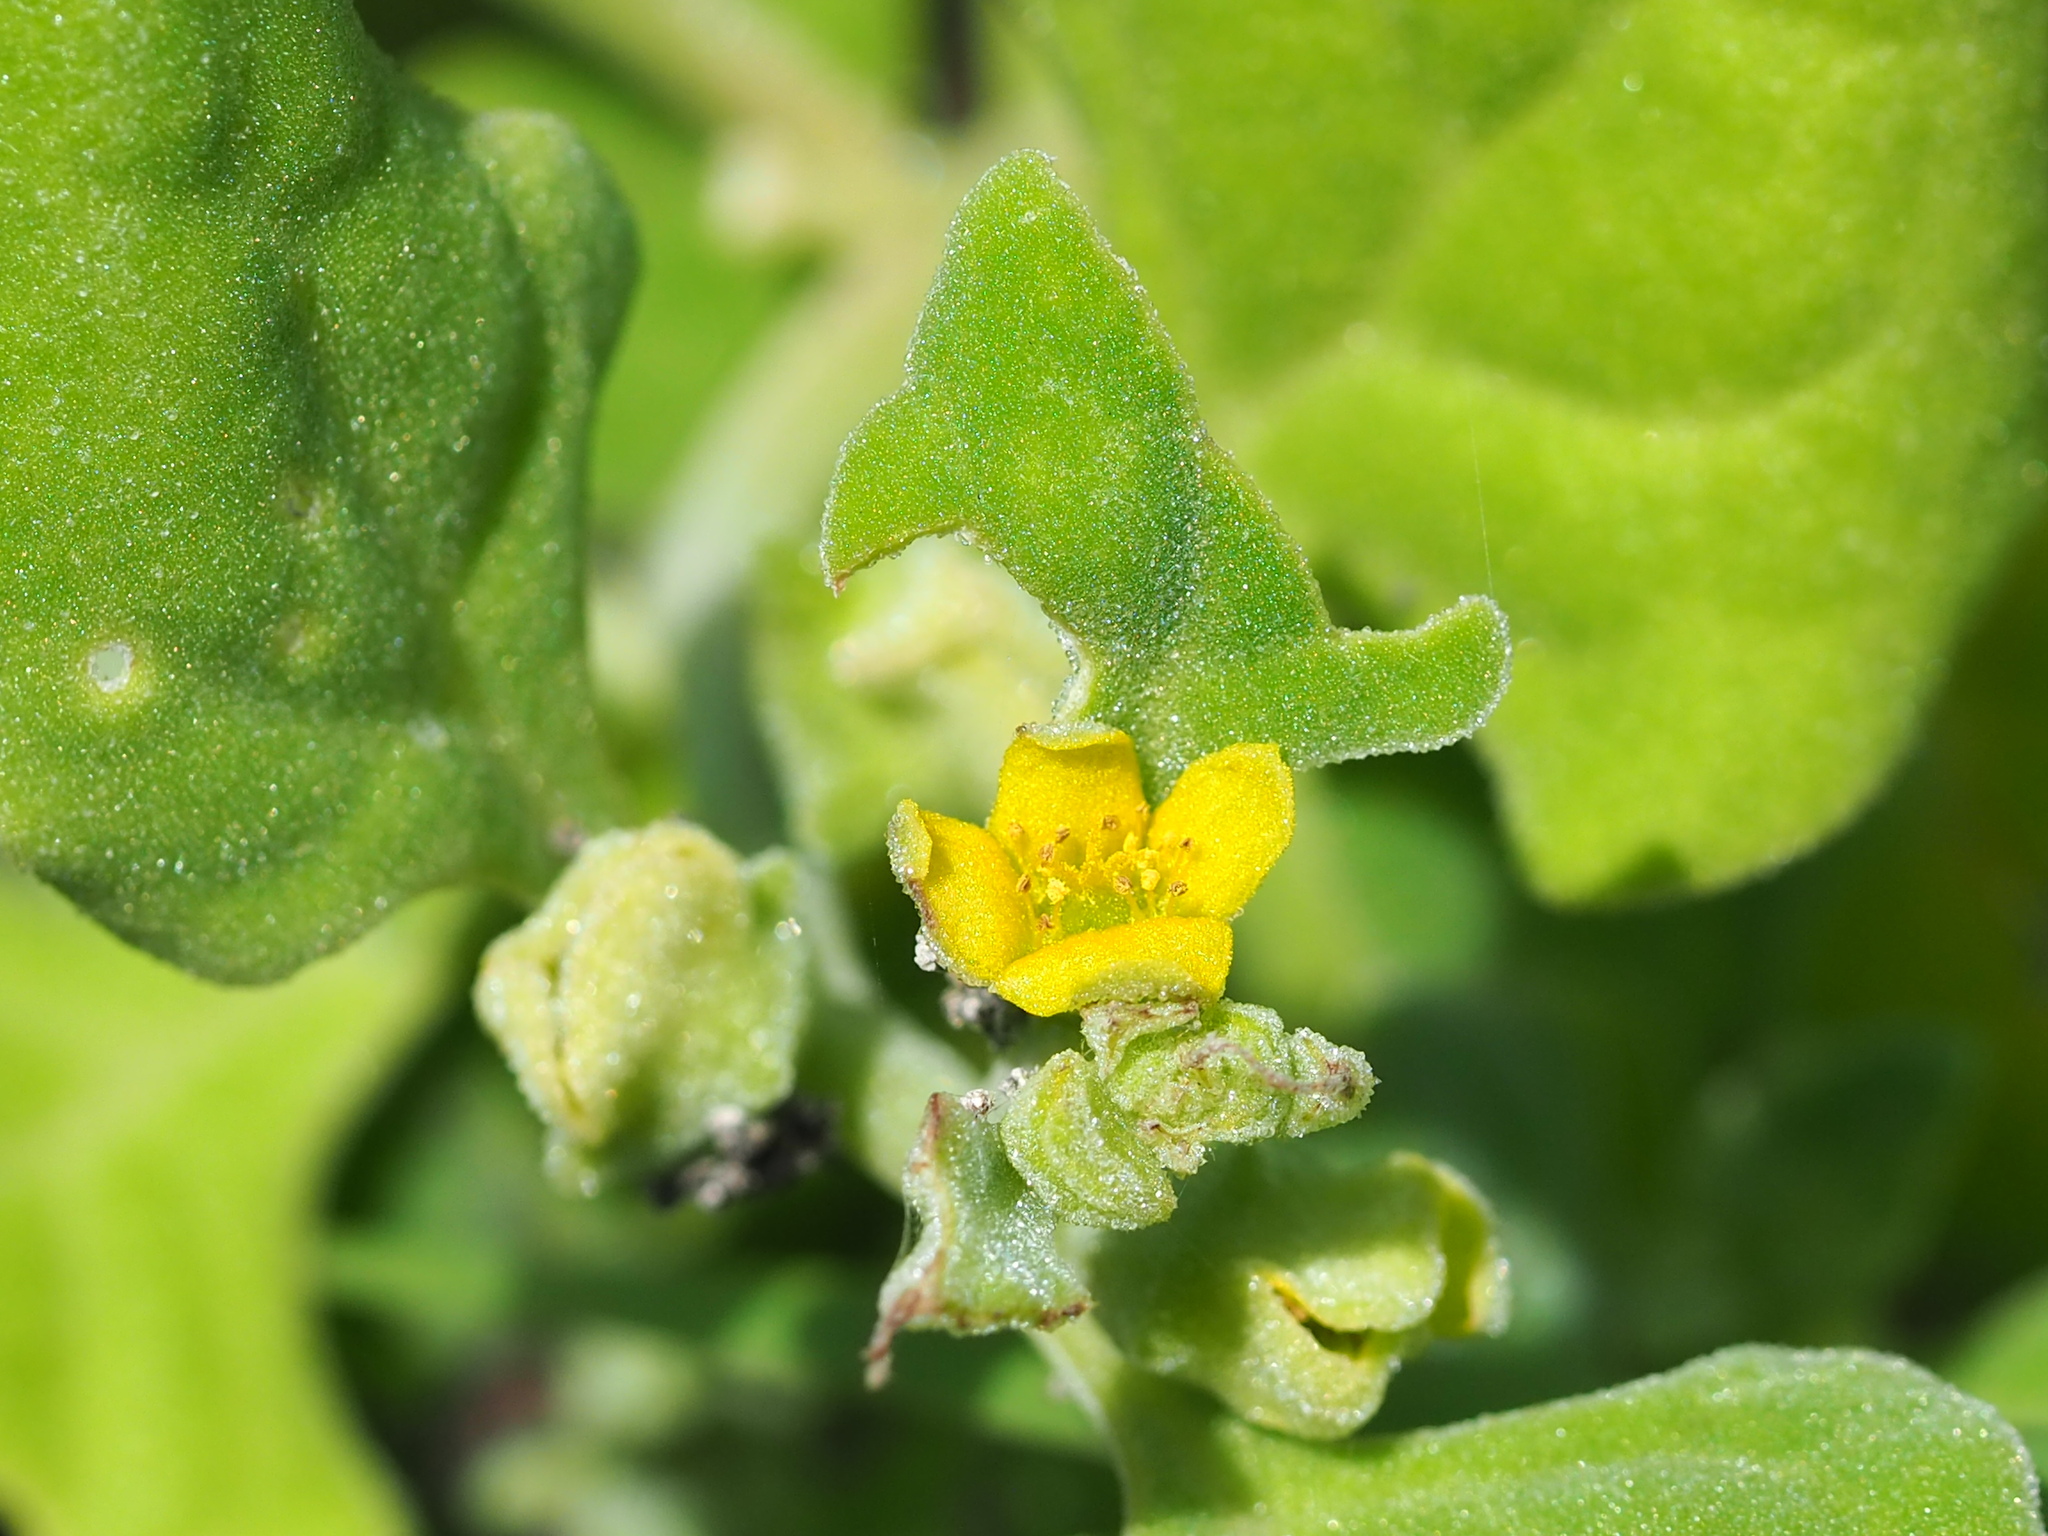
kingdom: Plantae
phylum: Tracheophyta
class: Magnoliopsida
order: Caryophyllales
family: Aizoaceae
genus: Tetragonia
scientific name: Tetragonia tetragonoides
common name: New zealand-spinach
